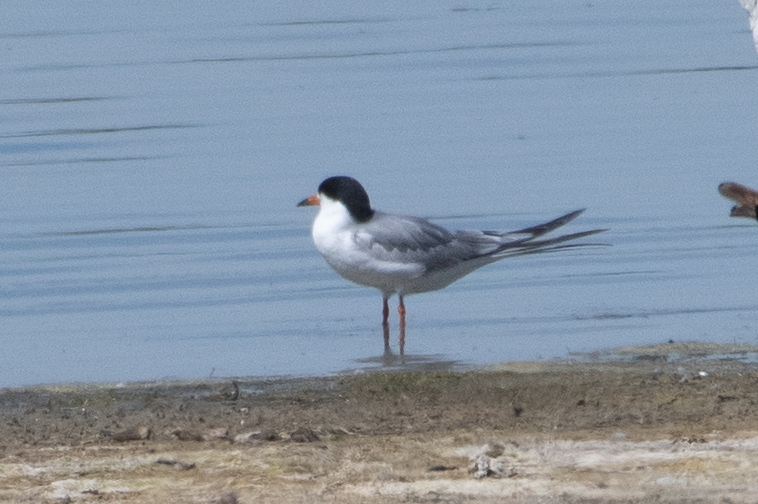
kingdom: Animalia
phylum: Chordata
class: Aves
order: Charadriiformes
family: Laridae
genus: Sterna
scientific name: Sterna forsteri
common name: Forster's tern
